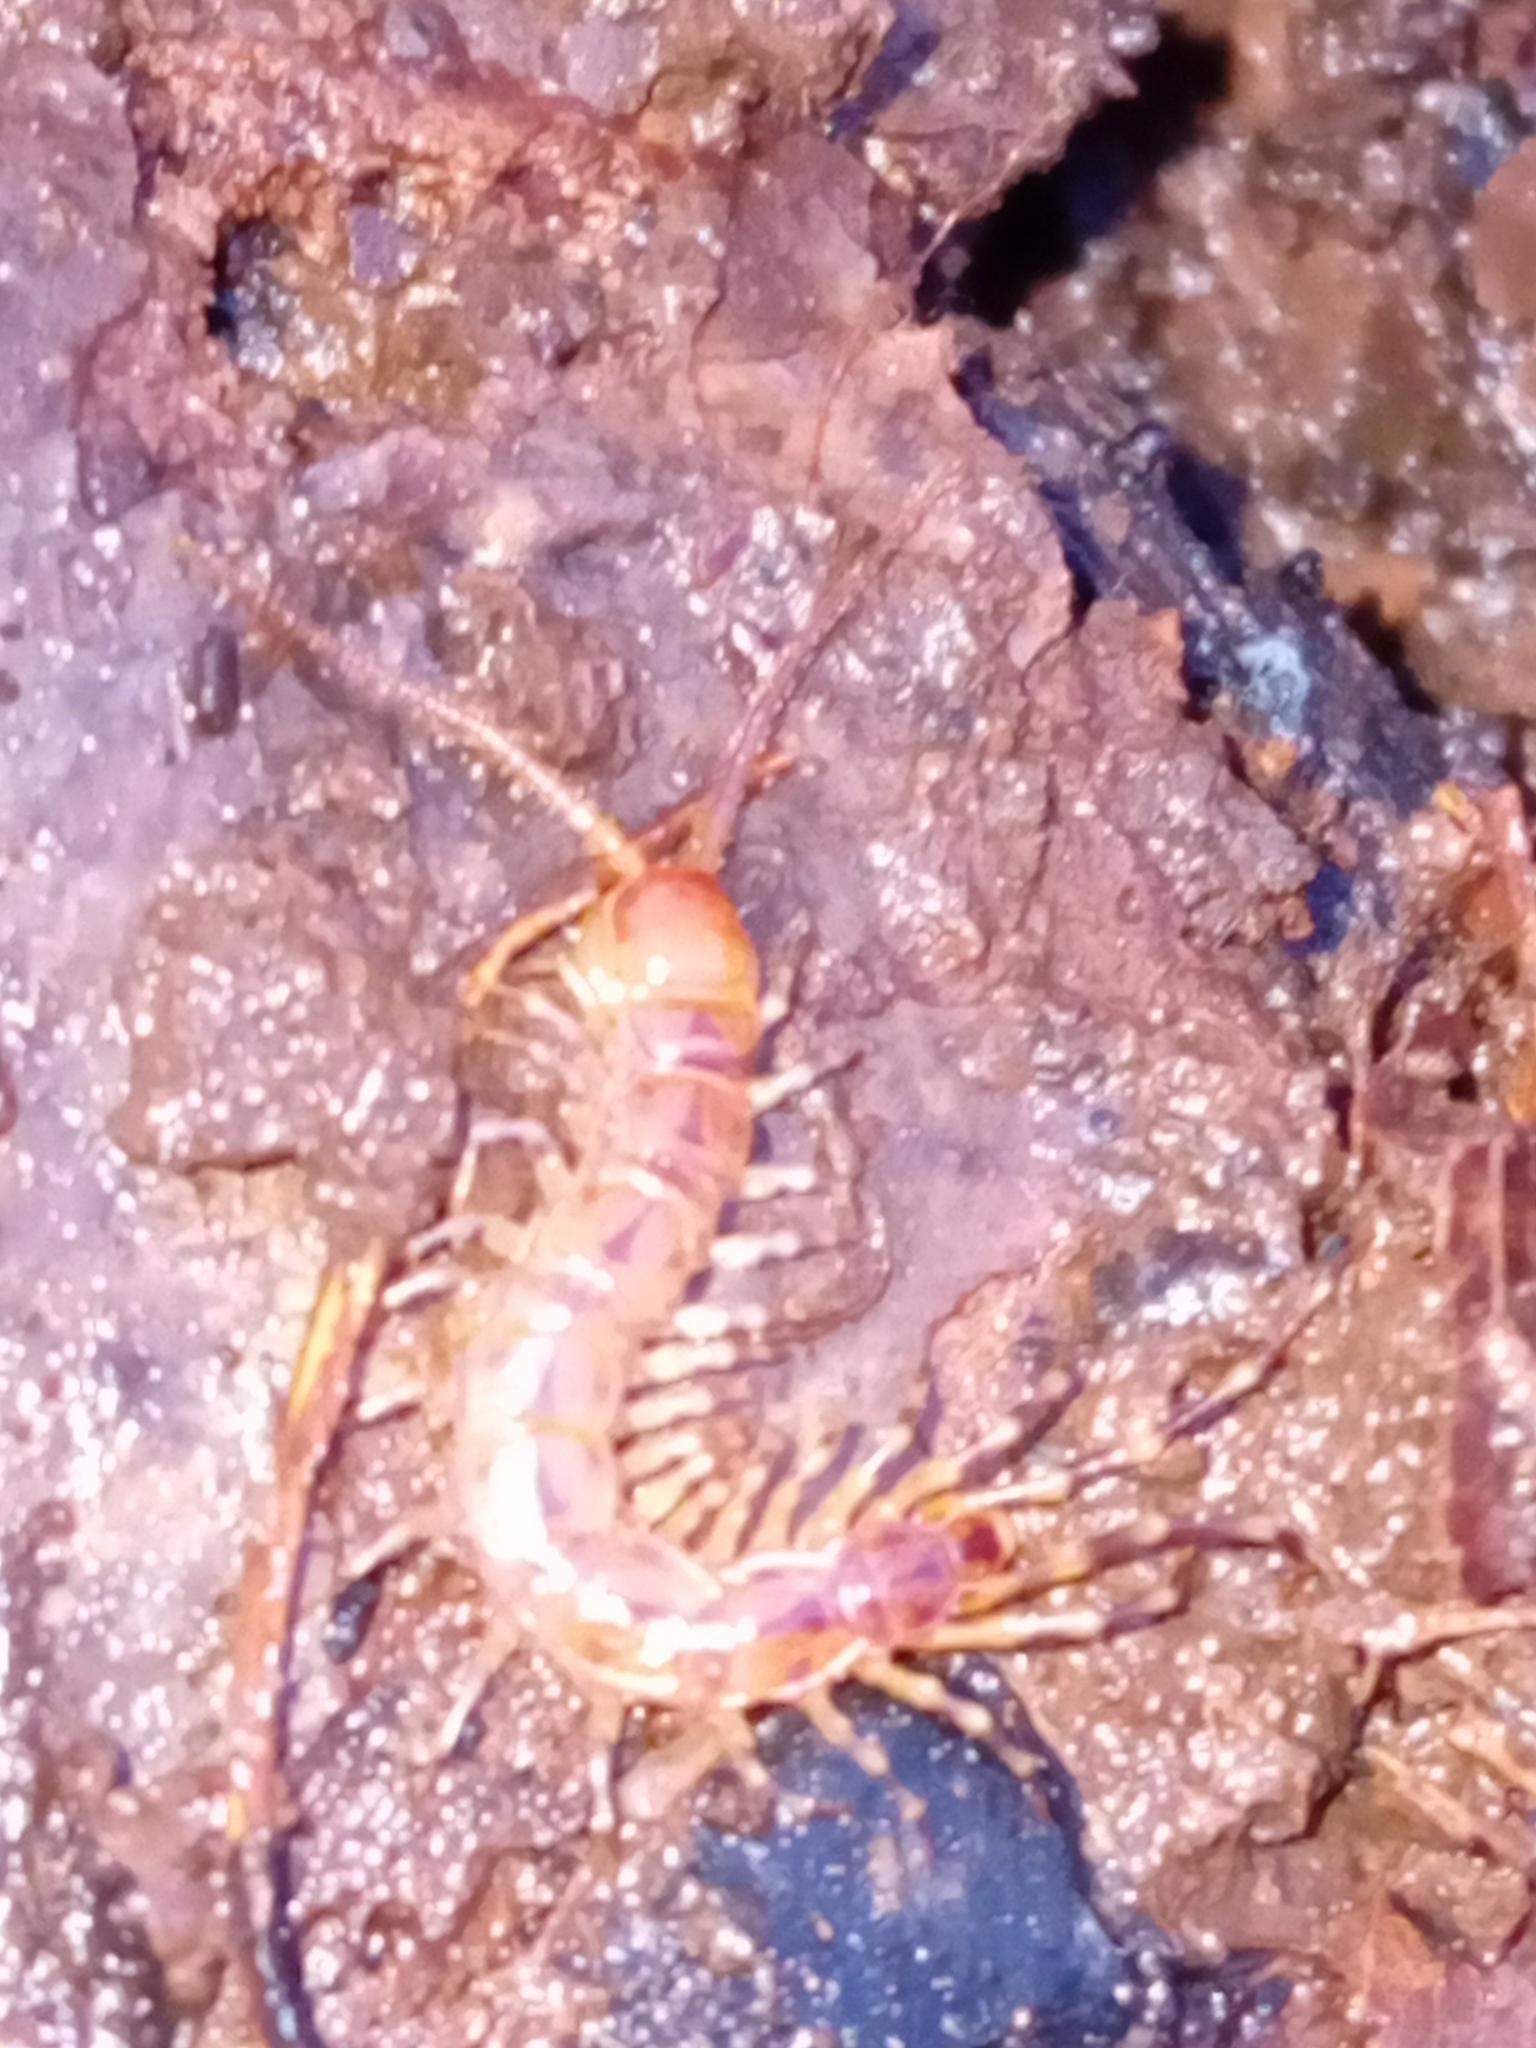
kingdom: Animalia
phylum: Arthropoda
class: Chilopoda
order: Lithobiomorpha
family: Lithobiidae
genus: Lithobius
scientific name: Lithobius variegatus
